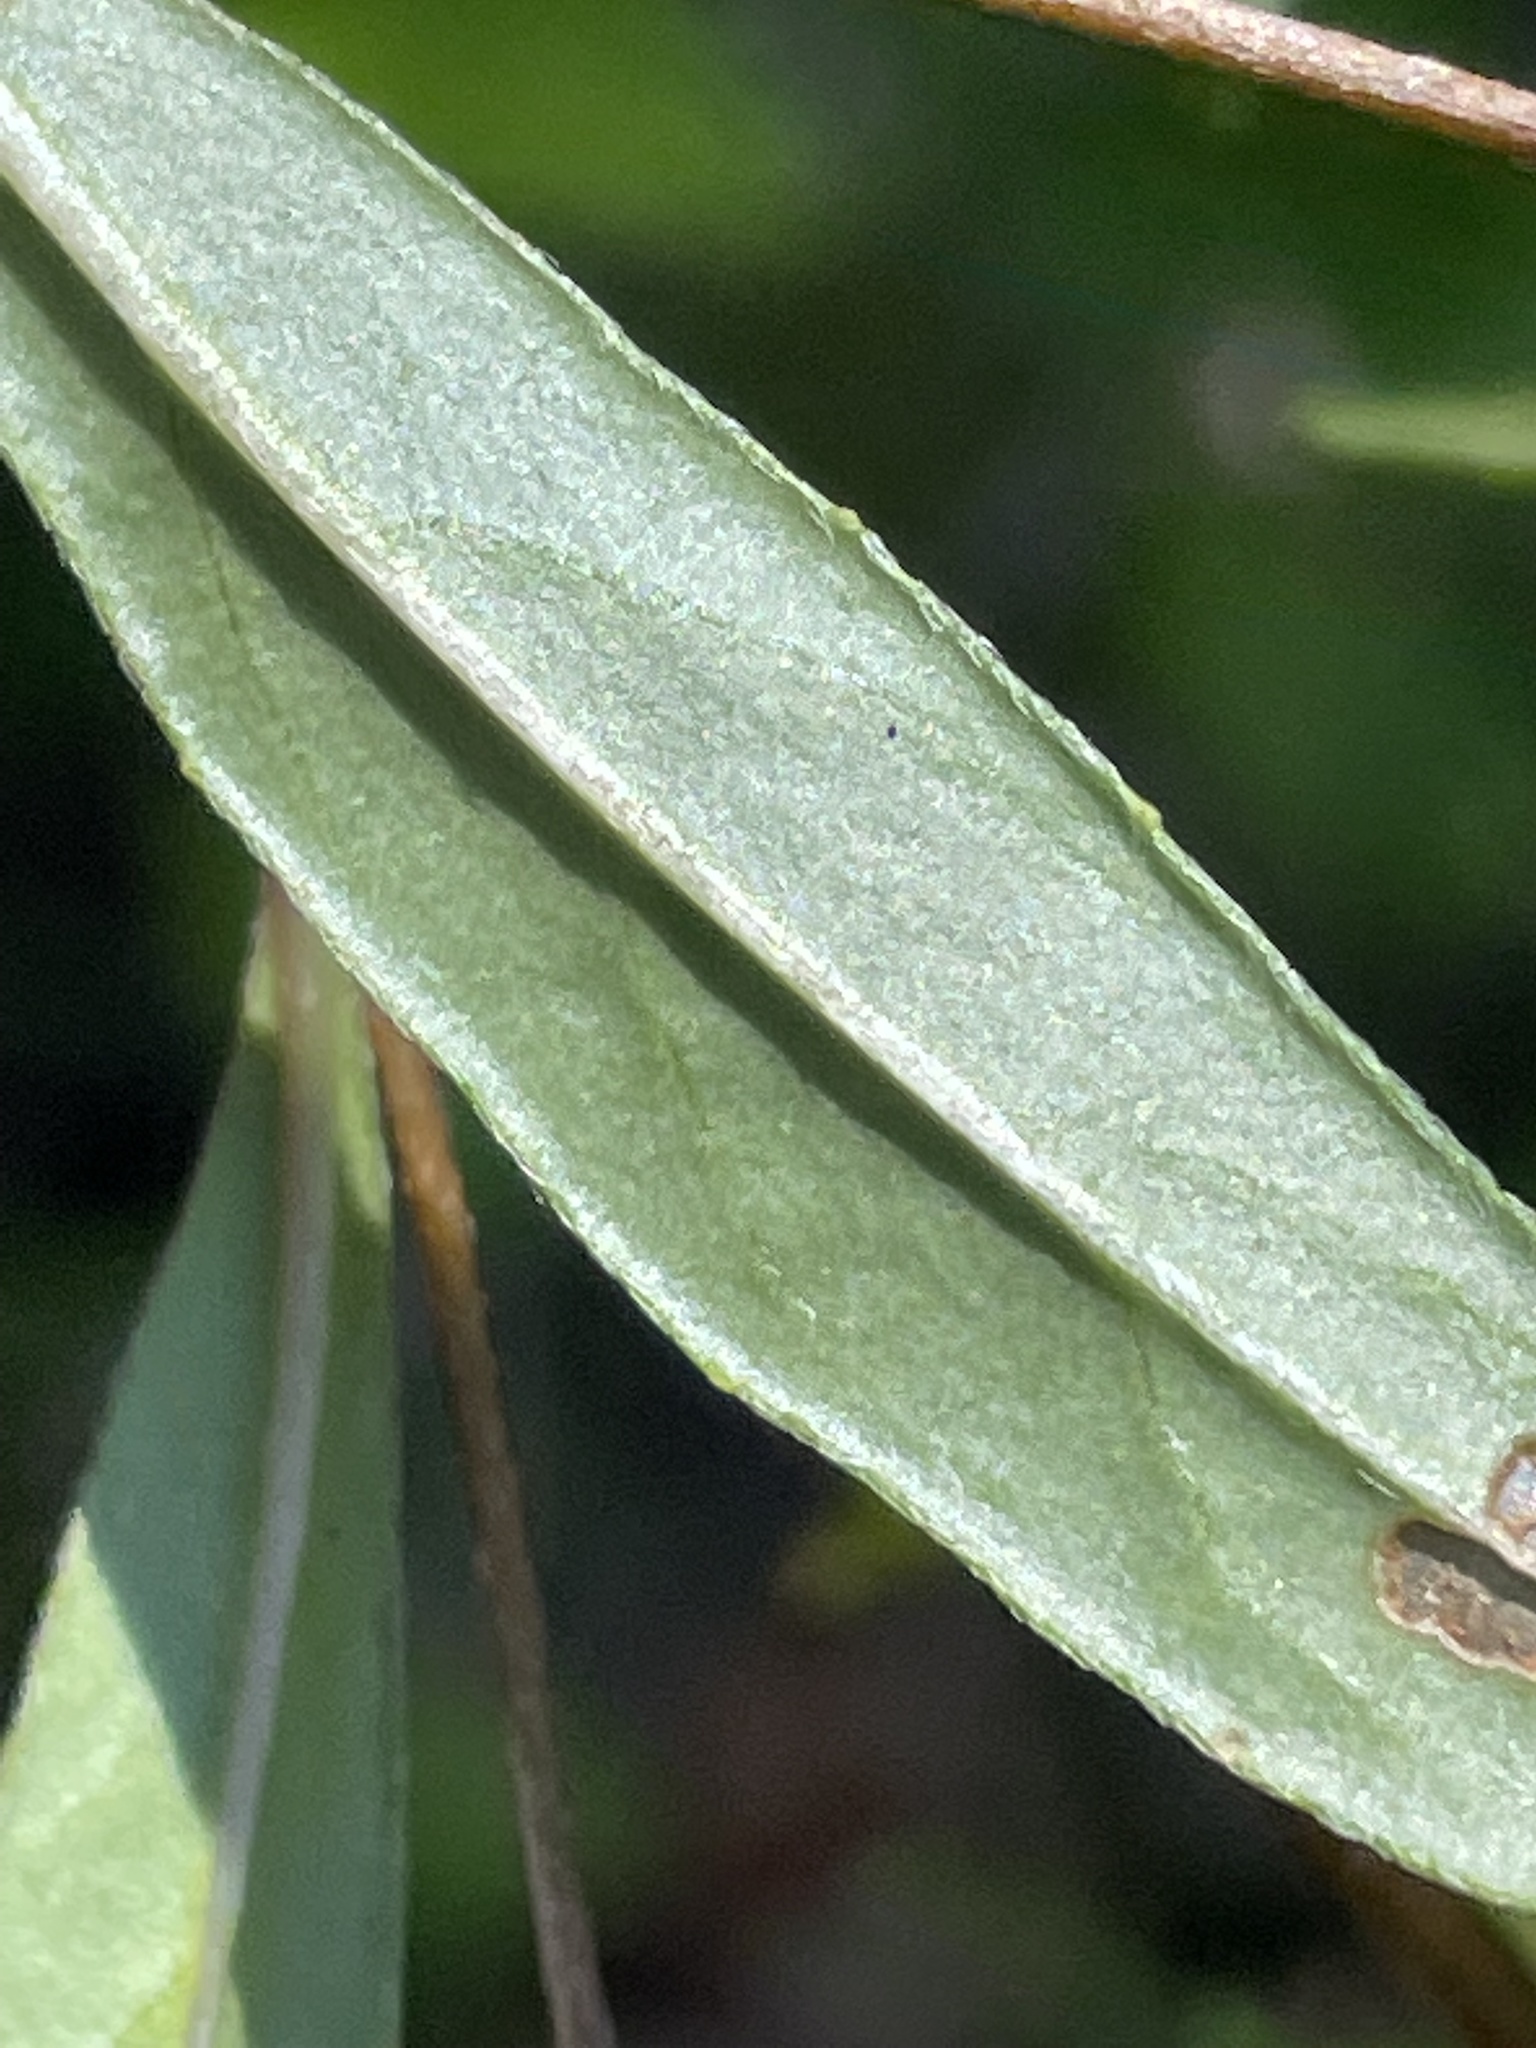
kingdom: Plantae
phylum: Tracheophyta
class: Magnoliopsida
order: Myrtales
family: Onagraceae
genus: Oenothera
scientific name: Oenothera fruticosa
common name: Southern sundrops
